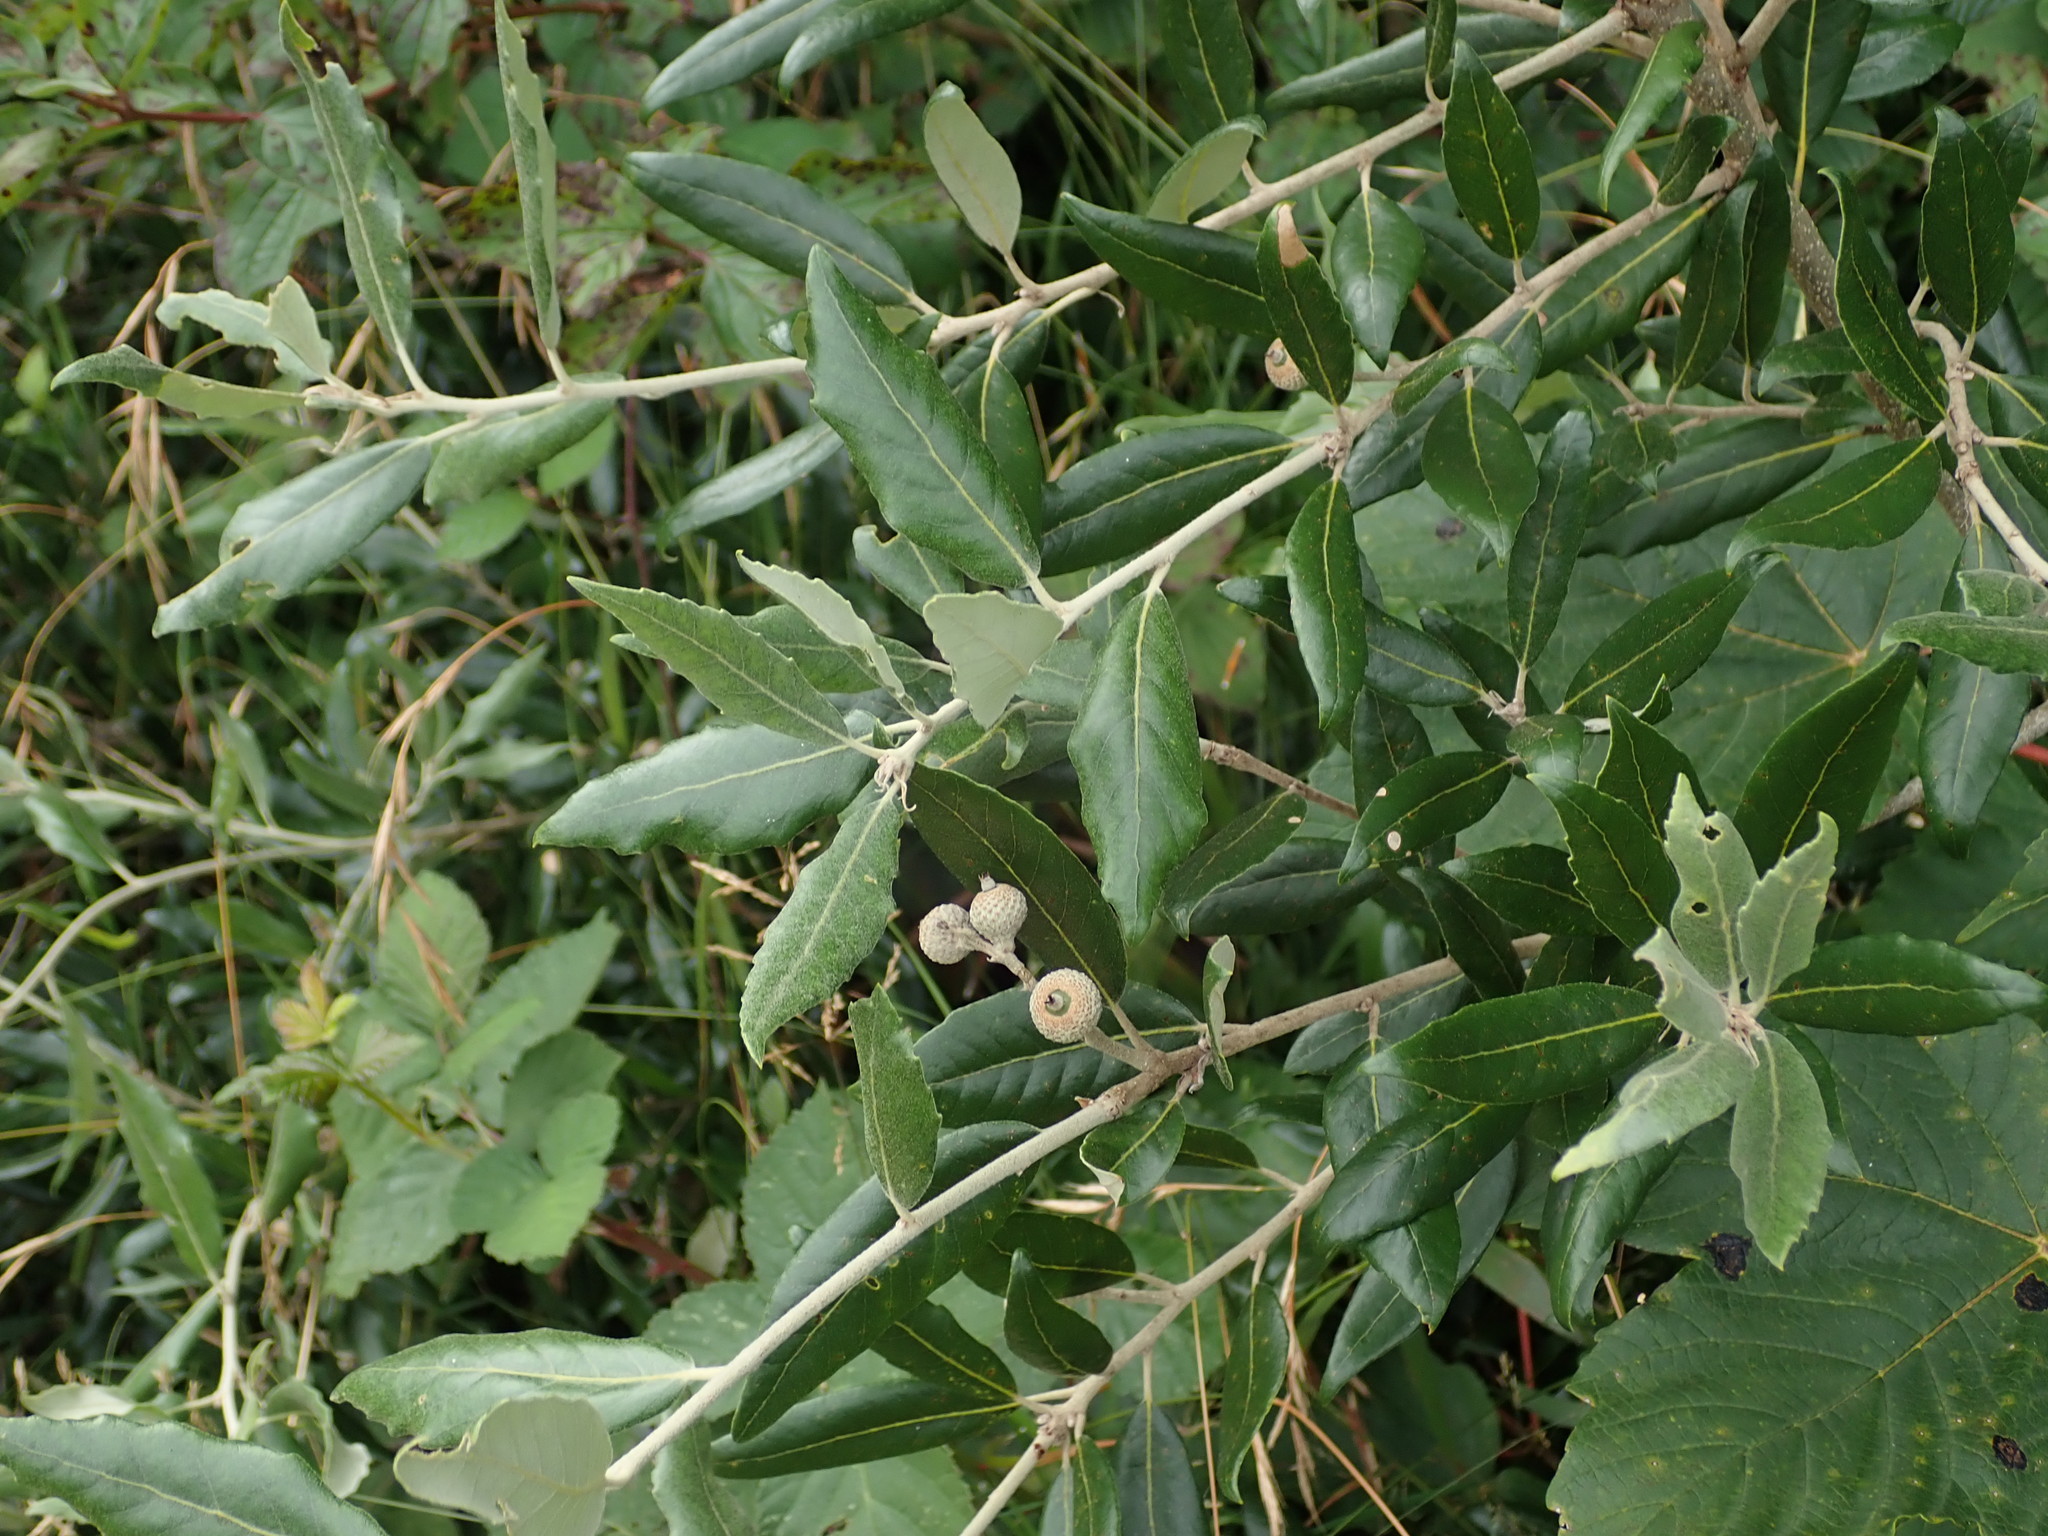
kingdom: Plantae
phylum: Tracheophyta
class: Magnoliopsida
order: Fagales
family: Fagaceae
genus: Quercus
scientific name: Quercus ilex
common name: Evergreen oak
